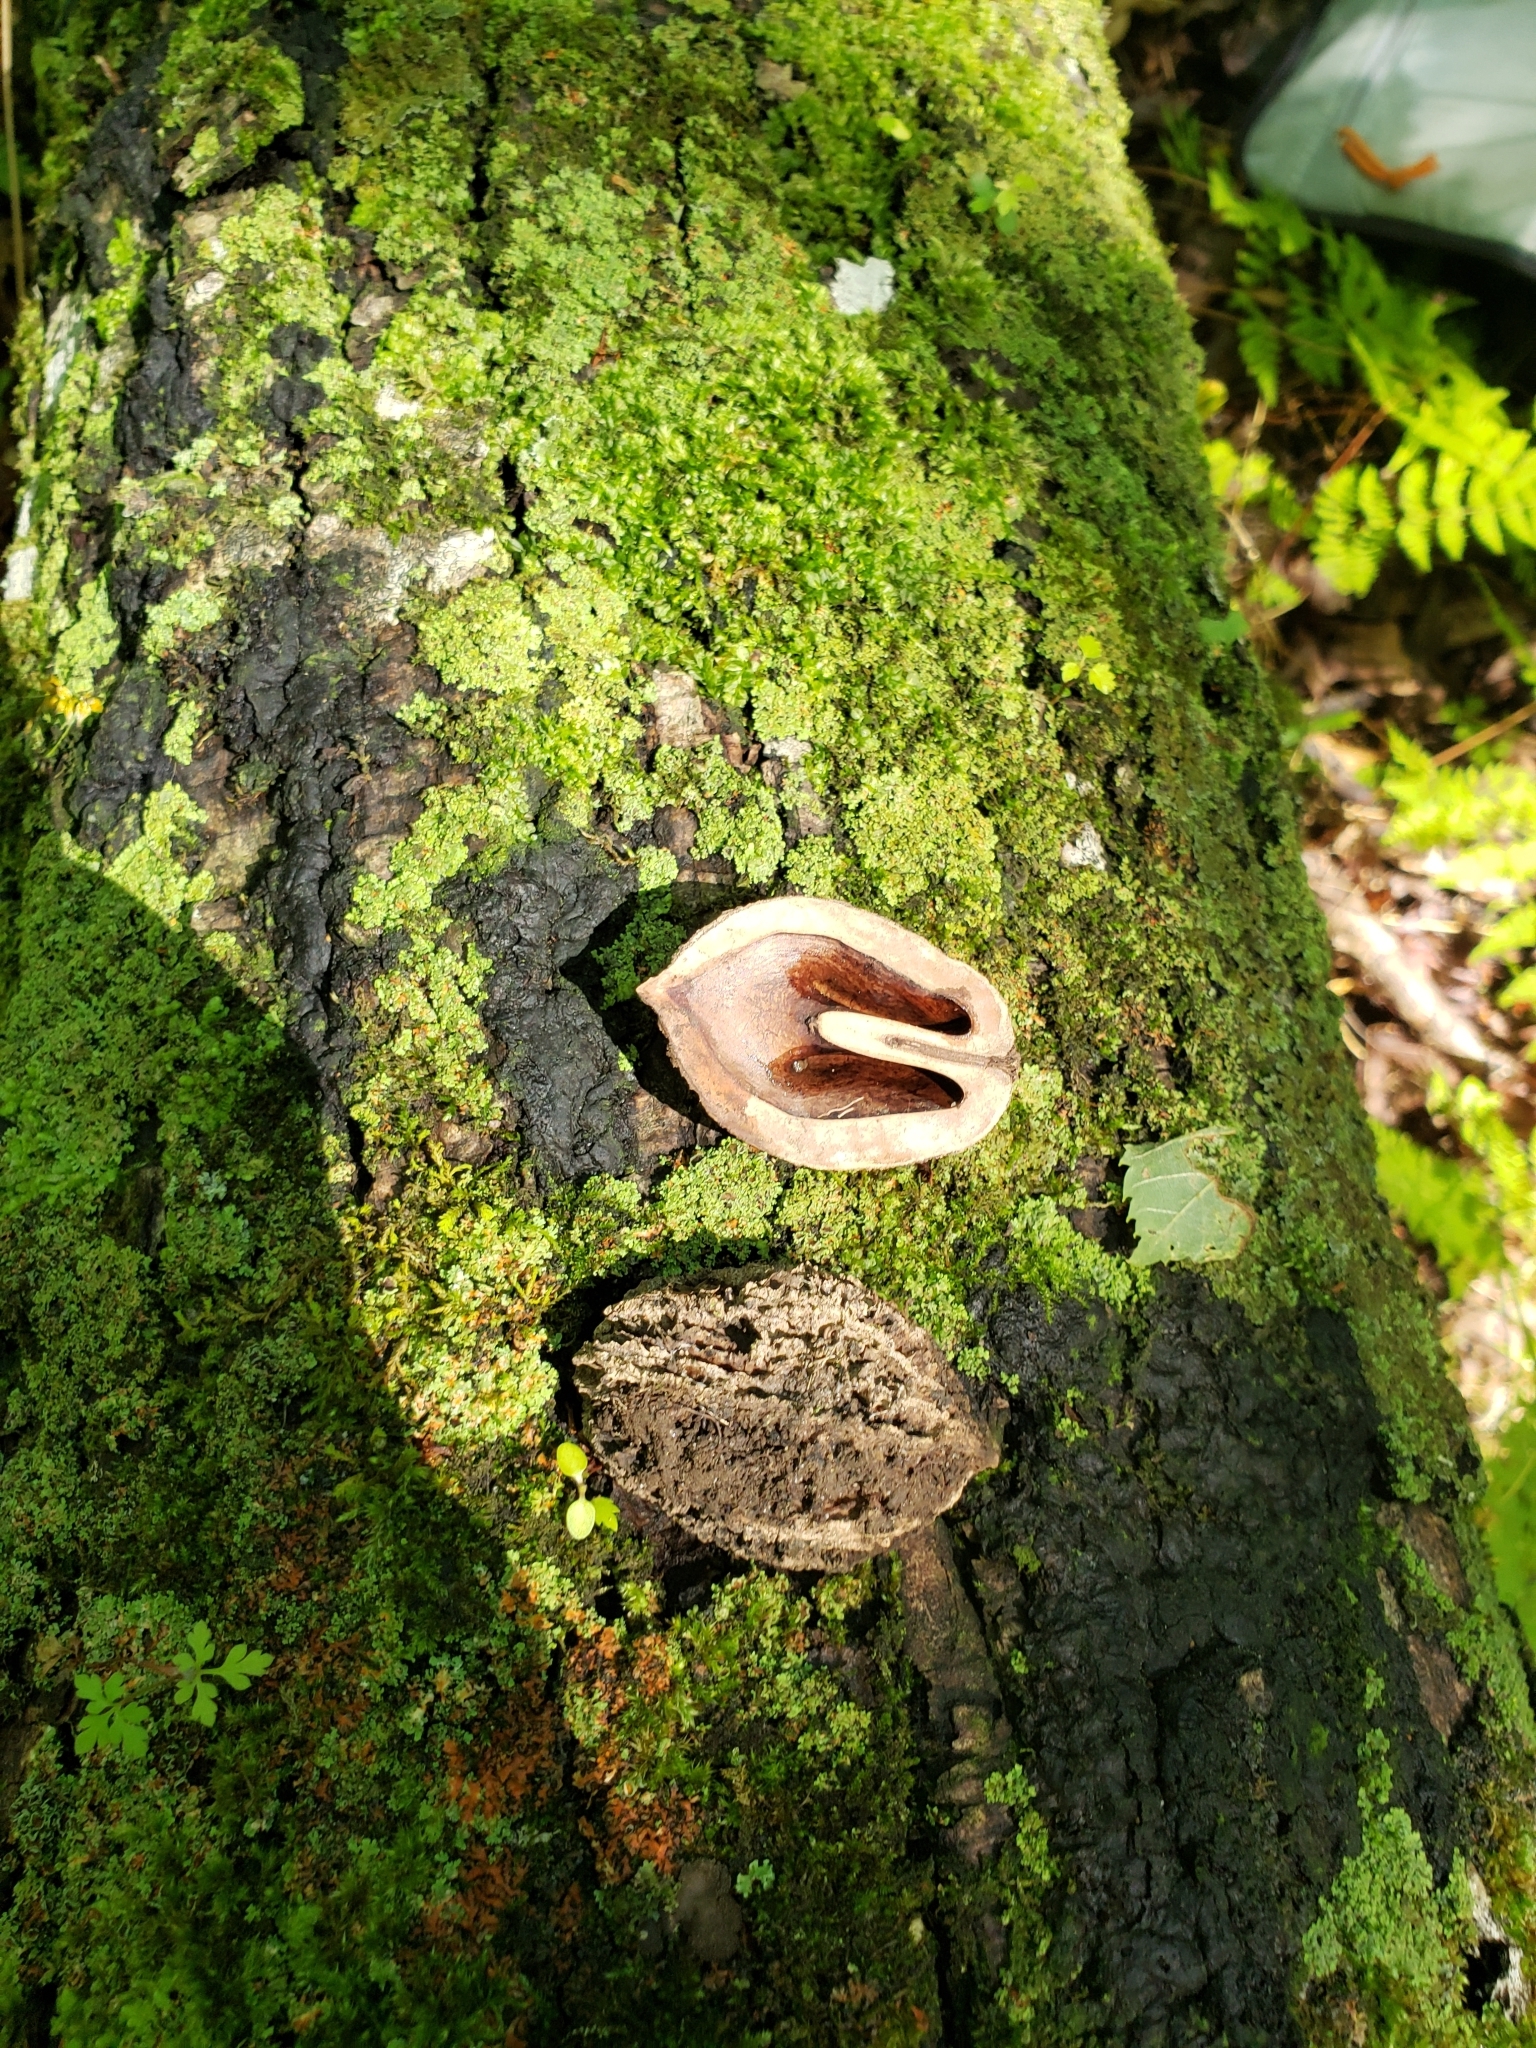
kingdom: Plantae
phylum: Tracheophyta
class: Magnoliopsida
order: Fagales
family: Juglandaceae
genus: Juglans
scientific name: Juglans cinerea
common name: Butternut
